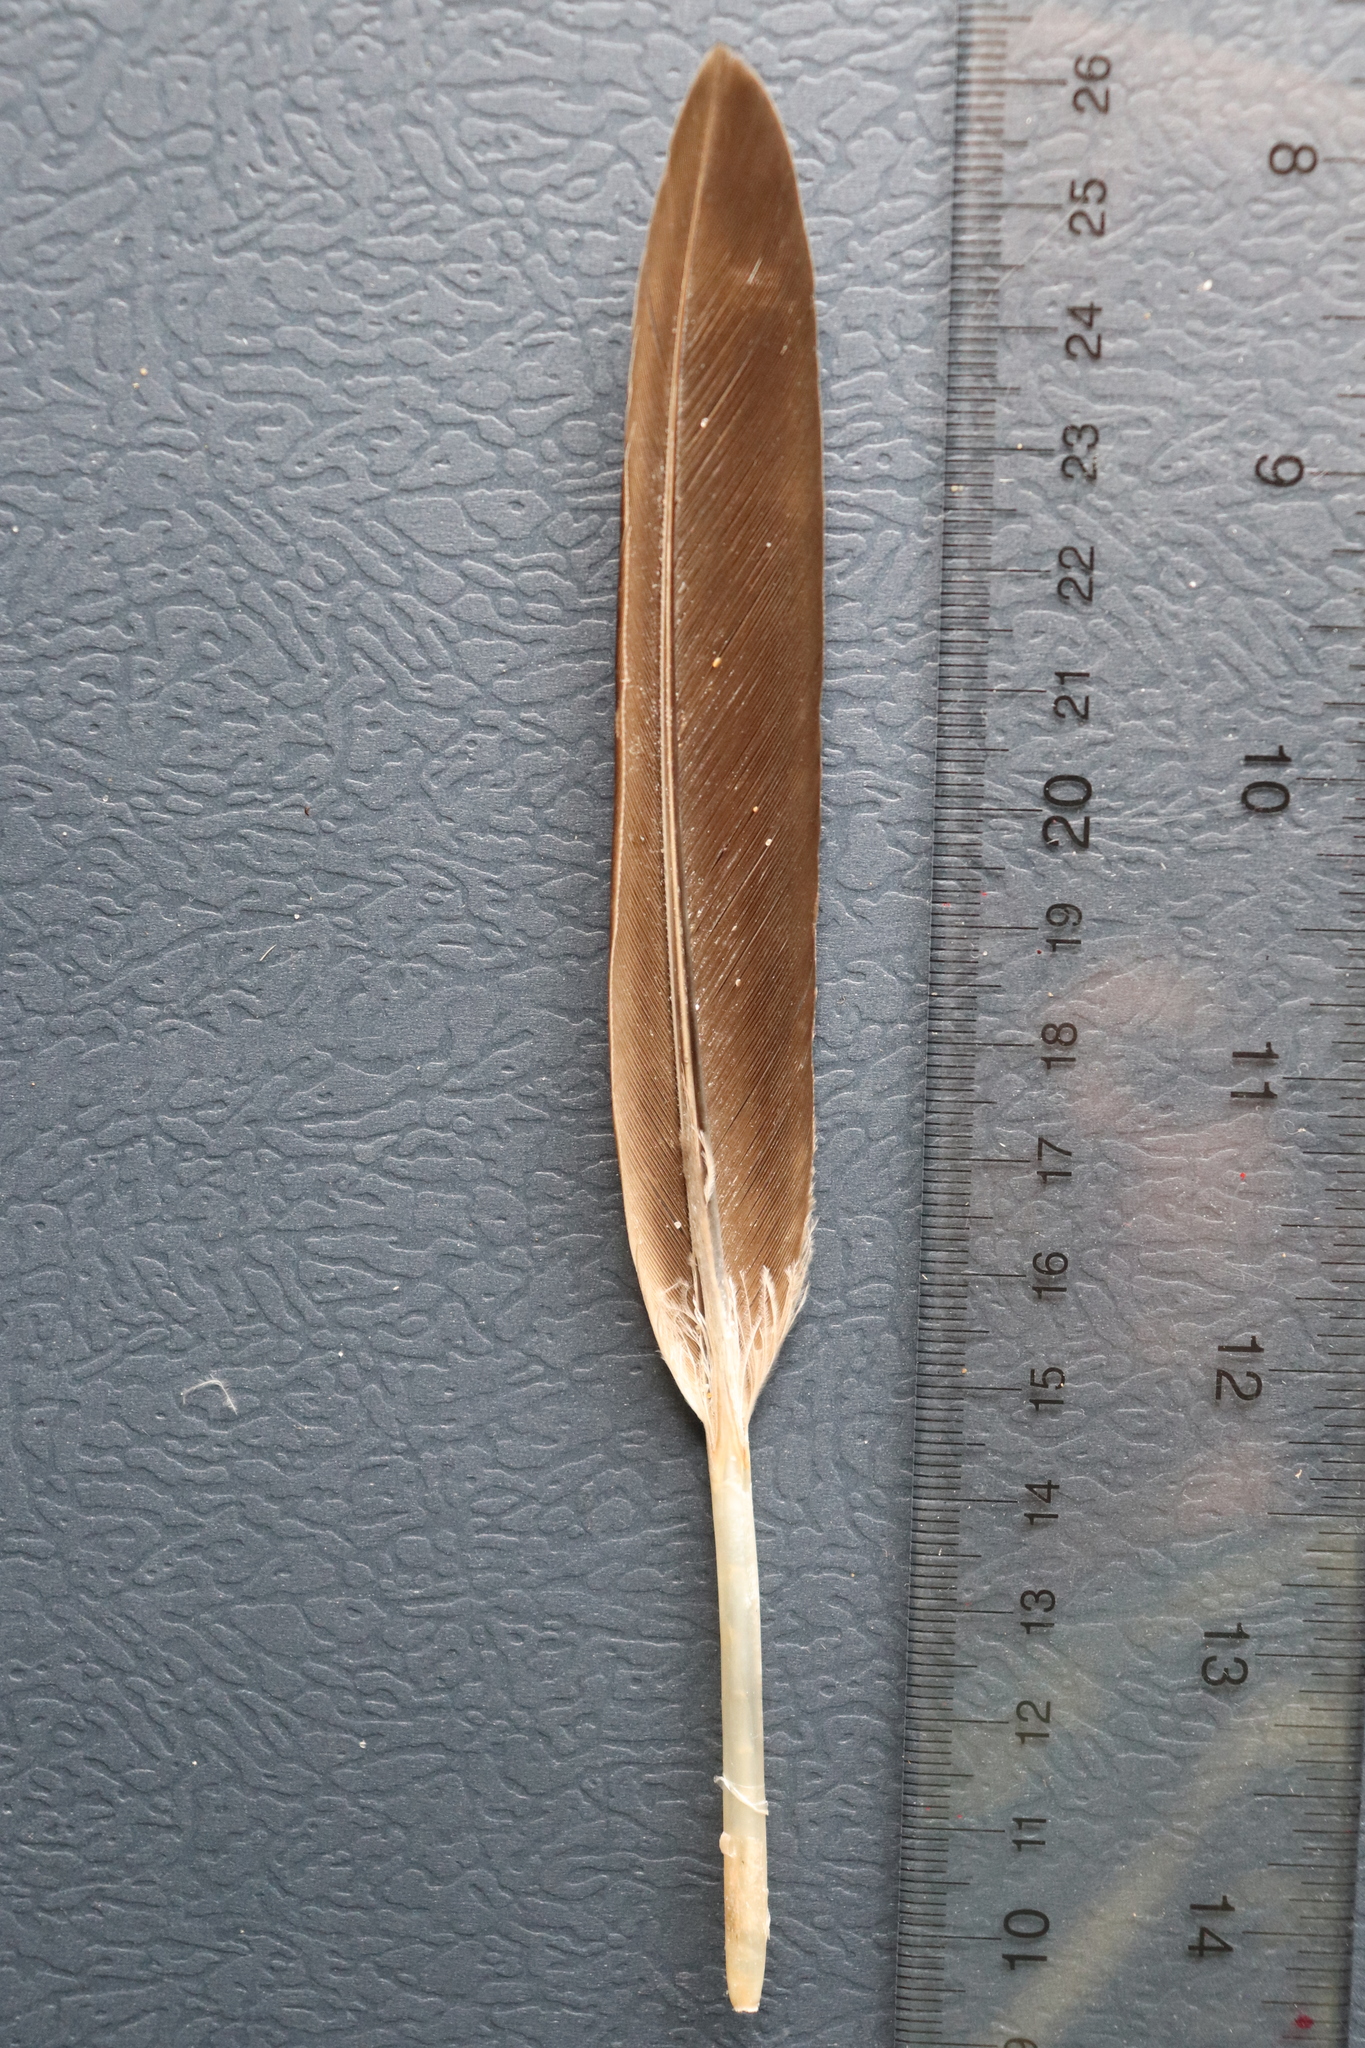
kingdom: Animalia
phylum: Chordata
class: Aves
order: Anseriformes
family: Anatidae
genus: Branta
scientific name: Branta canadensis
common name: Canada goose
